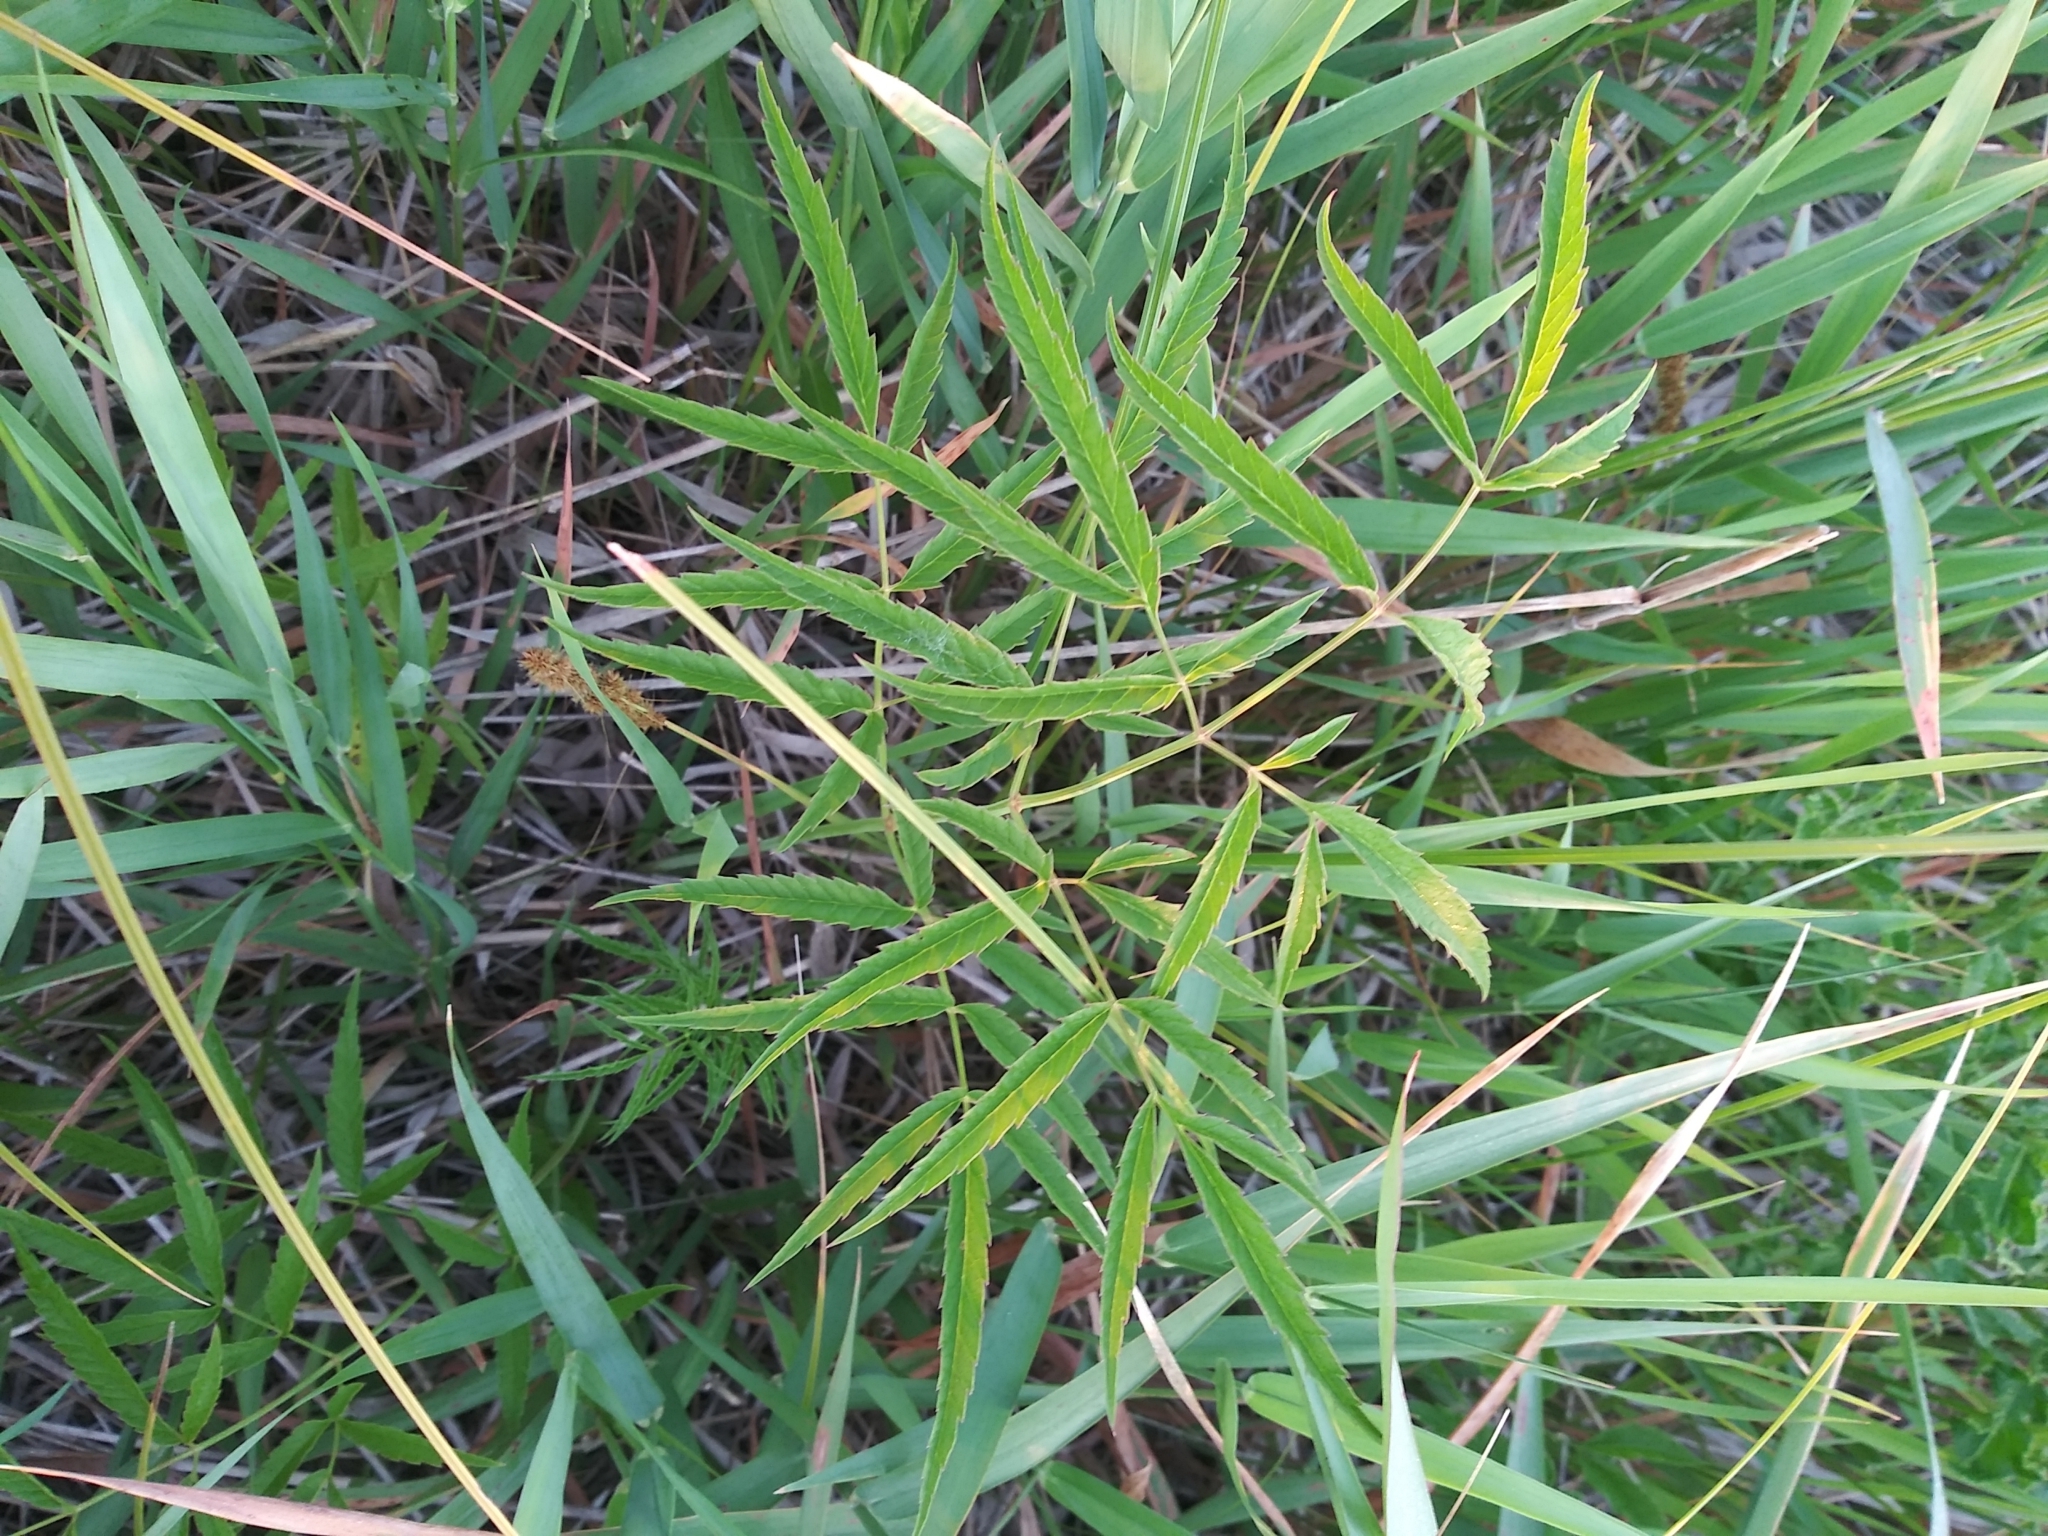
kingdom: Plantae
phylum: Tracheophyta
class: Magnoliopsida
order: Apiales
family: Apiaceae
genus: Cicuta
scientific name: Cicuta maculata
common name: Spotted cowbane
